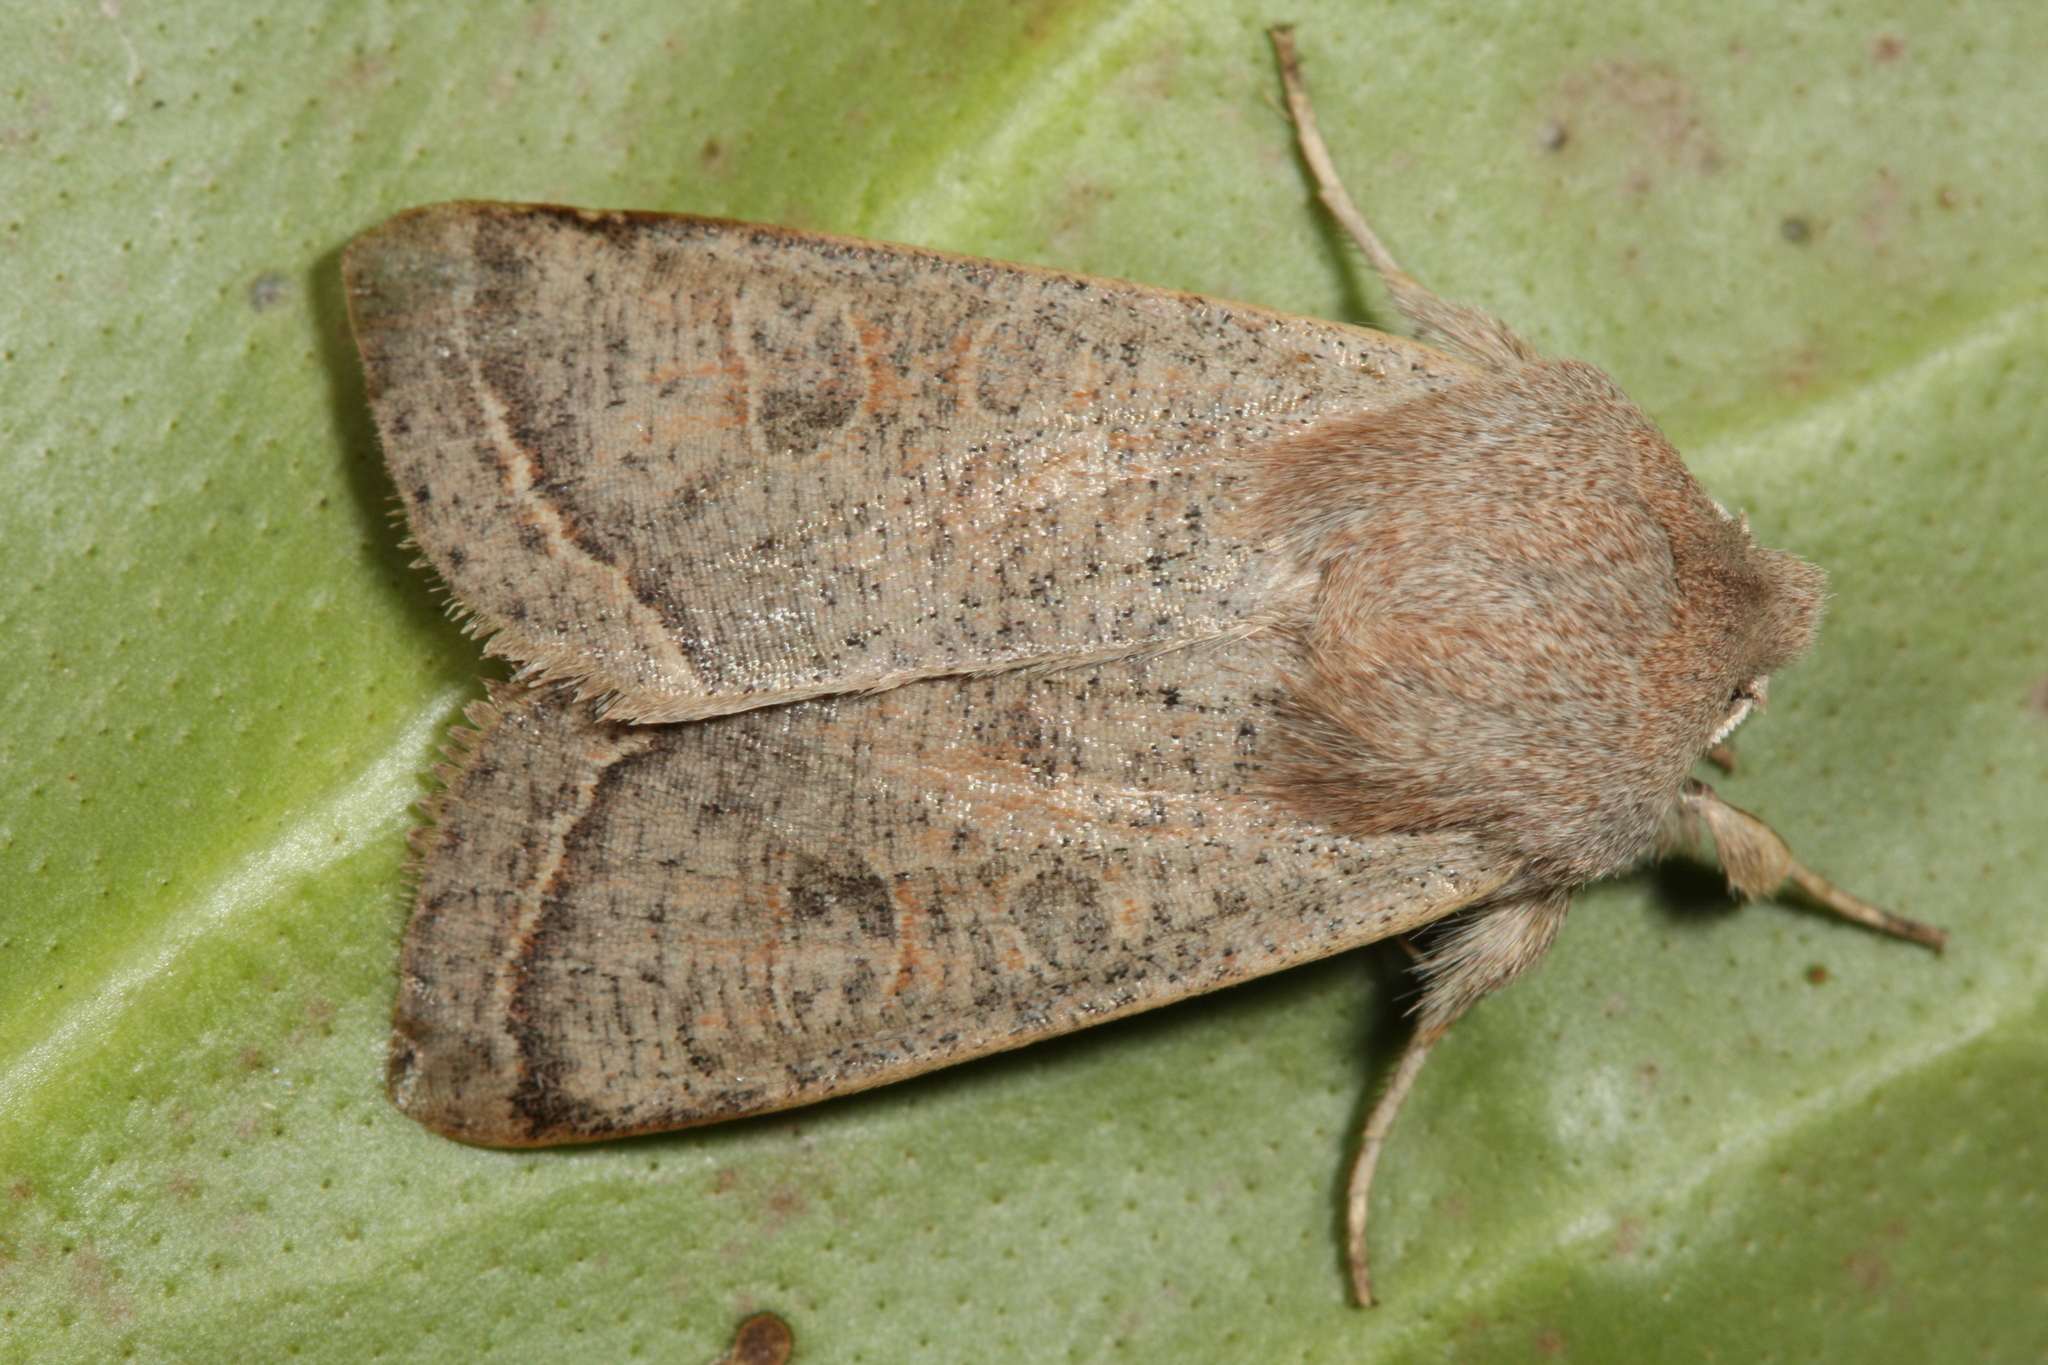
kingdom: Animalia
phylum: Arthropoda
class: Insecta
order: Lepidoptera
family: Noctuidae
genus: Orthosia
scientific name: Orthosia gracilis
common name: Powdered quaker
